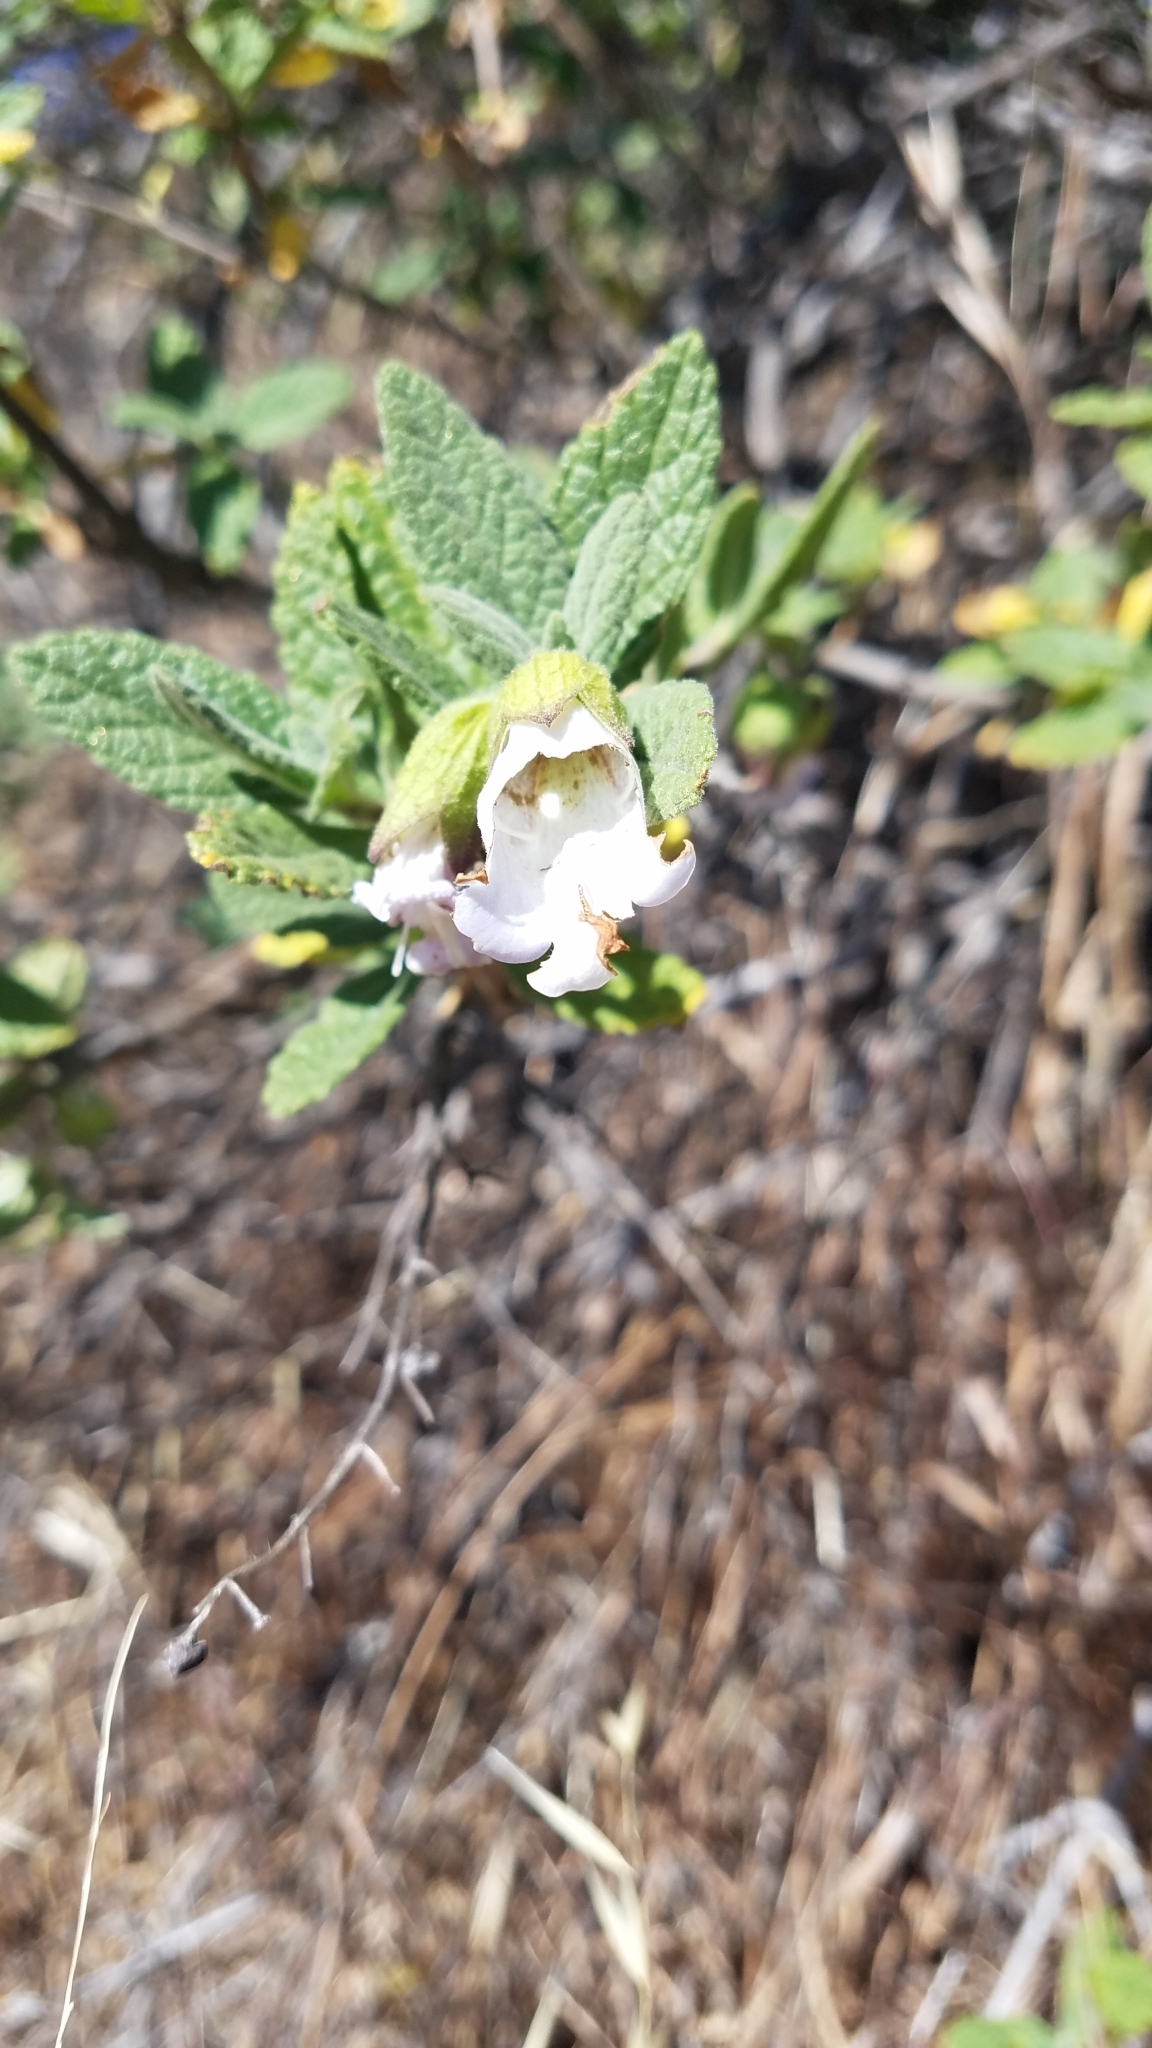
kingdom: Plantae
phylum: Tracheophyta
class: Magnoliopsida
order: Lamiales
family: Lamiaceae
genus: Lepechinia
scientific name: Lepechinia calycina
